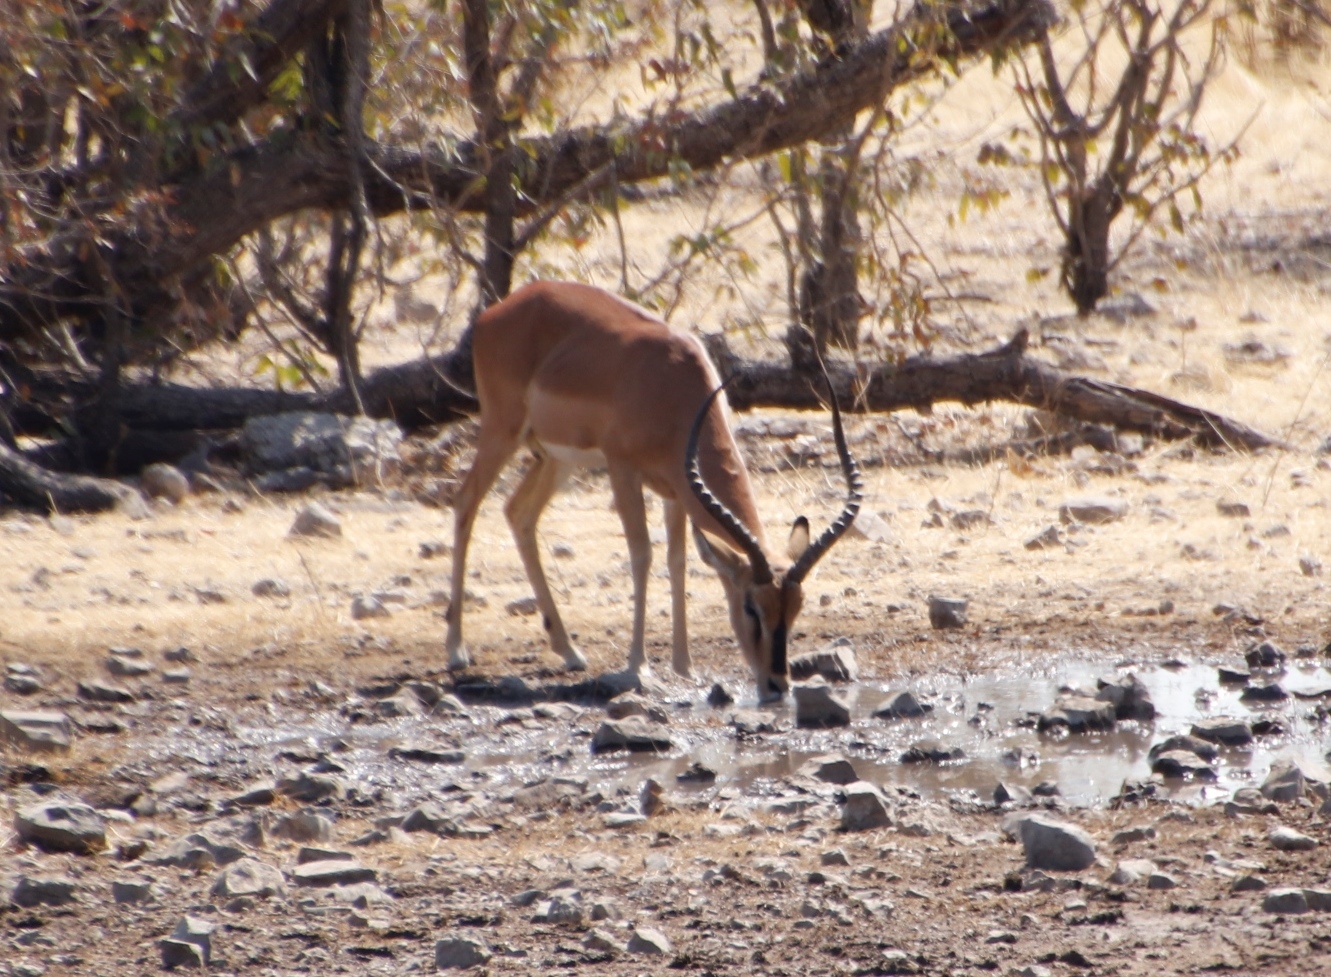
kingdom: Animalia
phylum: Chordata
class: Mammalia
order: Artiodactyla
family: Bovidae
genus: Aepyceros
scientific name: Aepyceros melampus
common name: Impala
